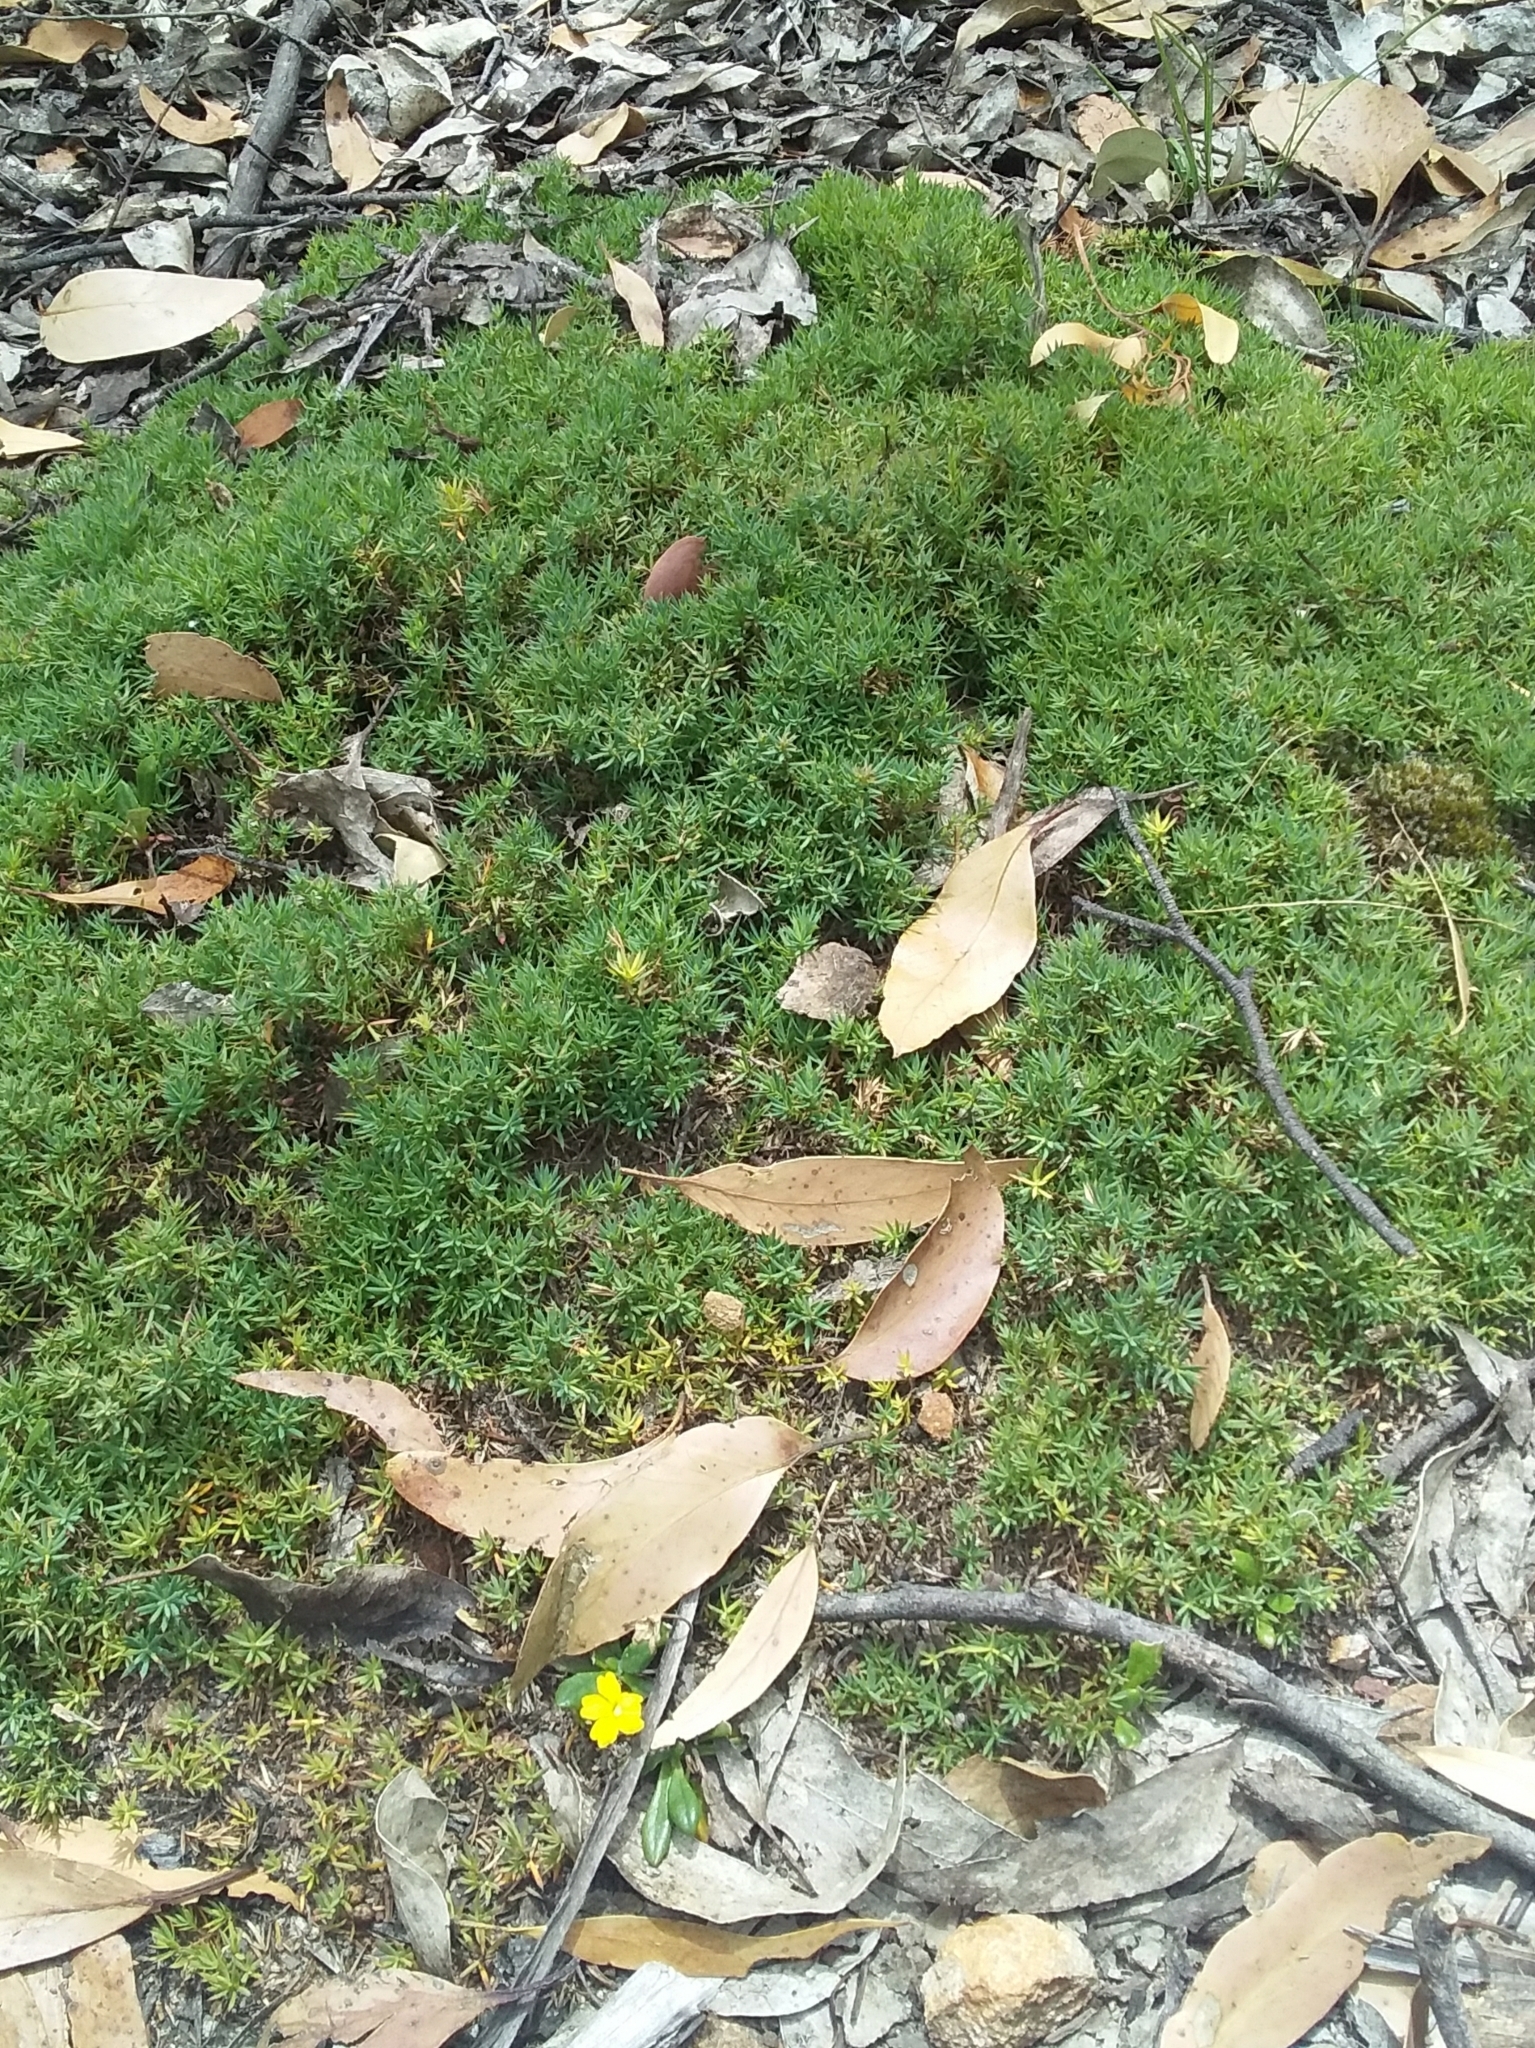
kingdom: Plantae
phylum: Tracheophyta
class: Magnoliopsida
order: Ericales
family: Ericaceae
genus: Styphelia
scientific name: Styphelia humifusa
